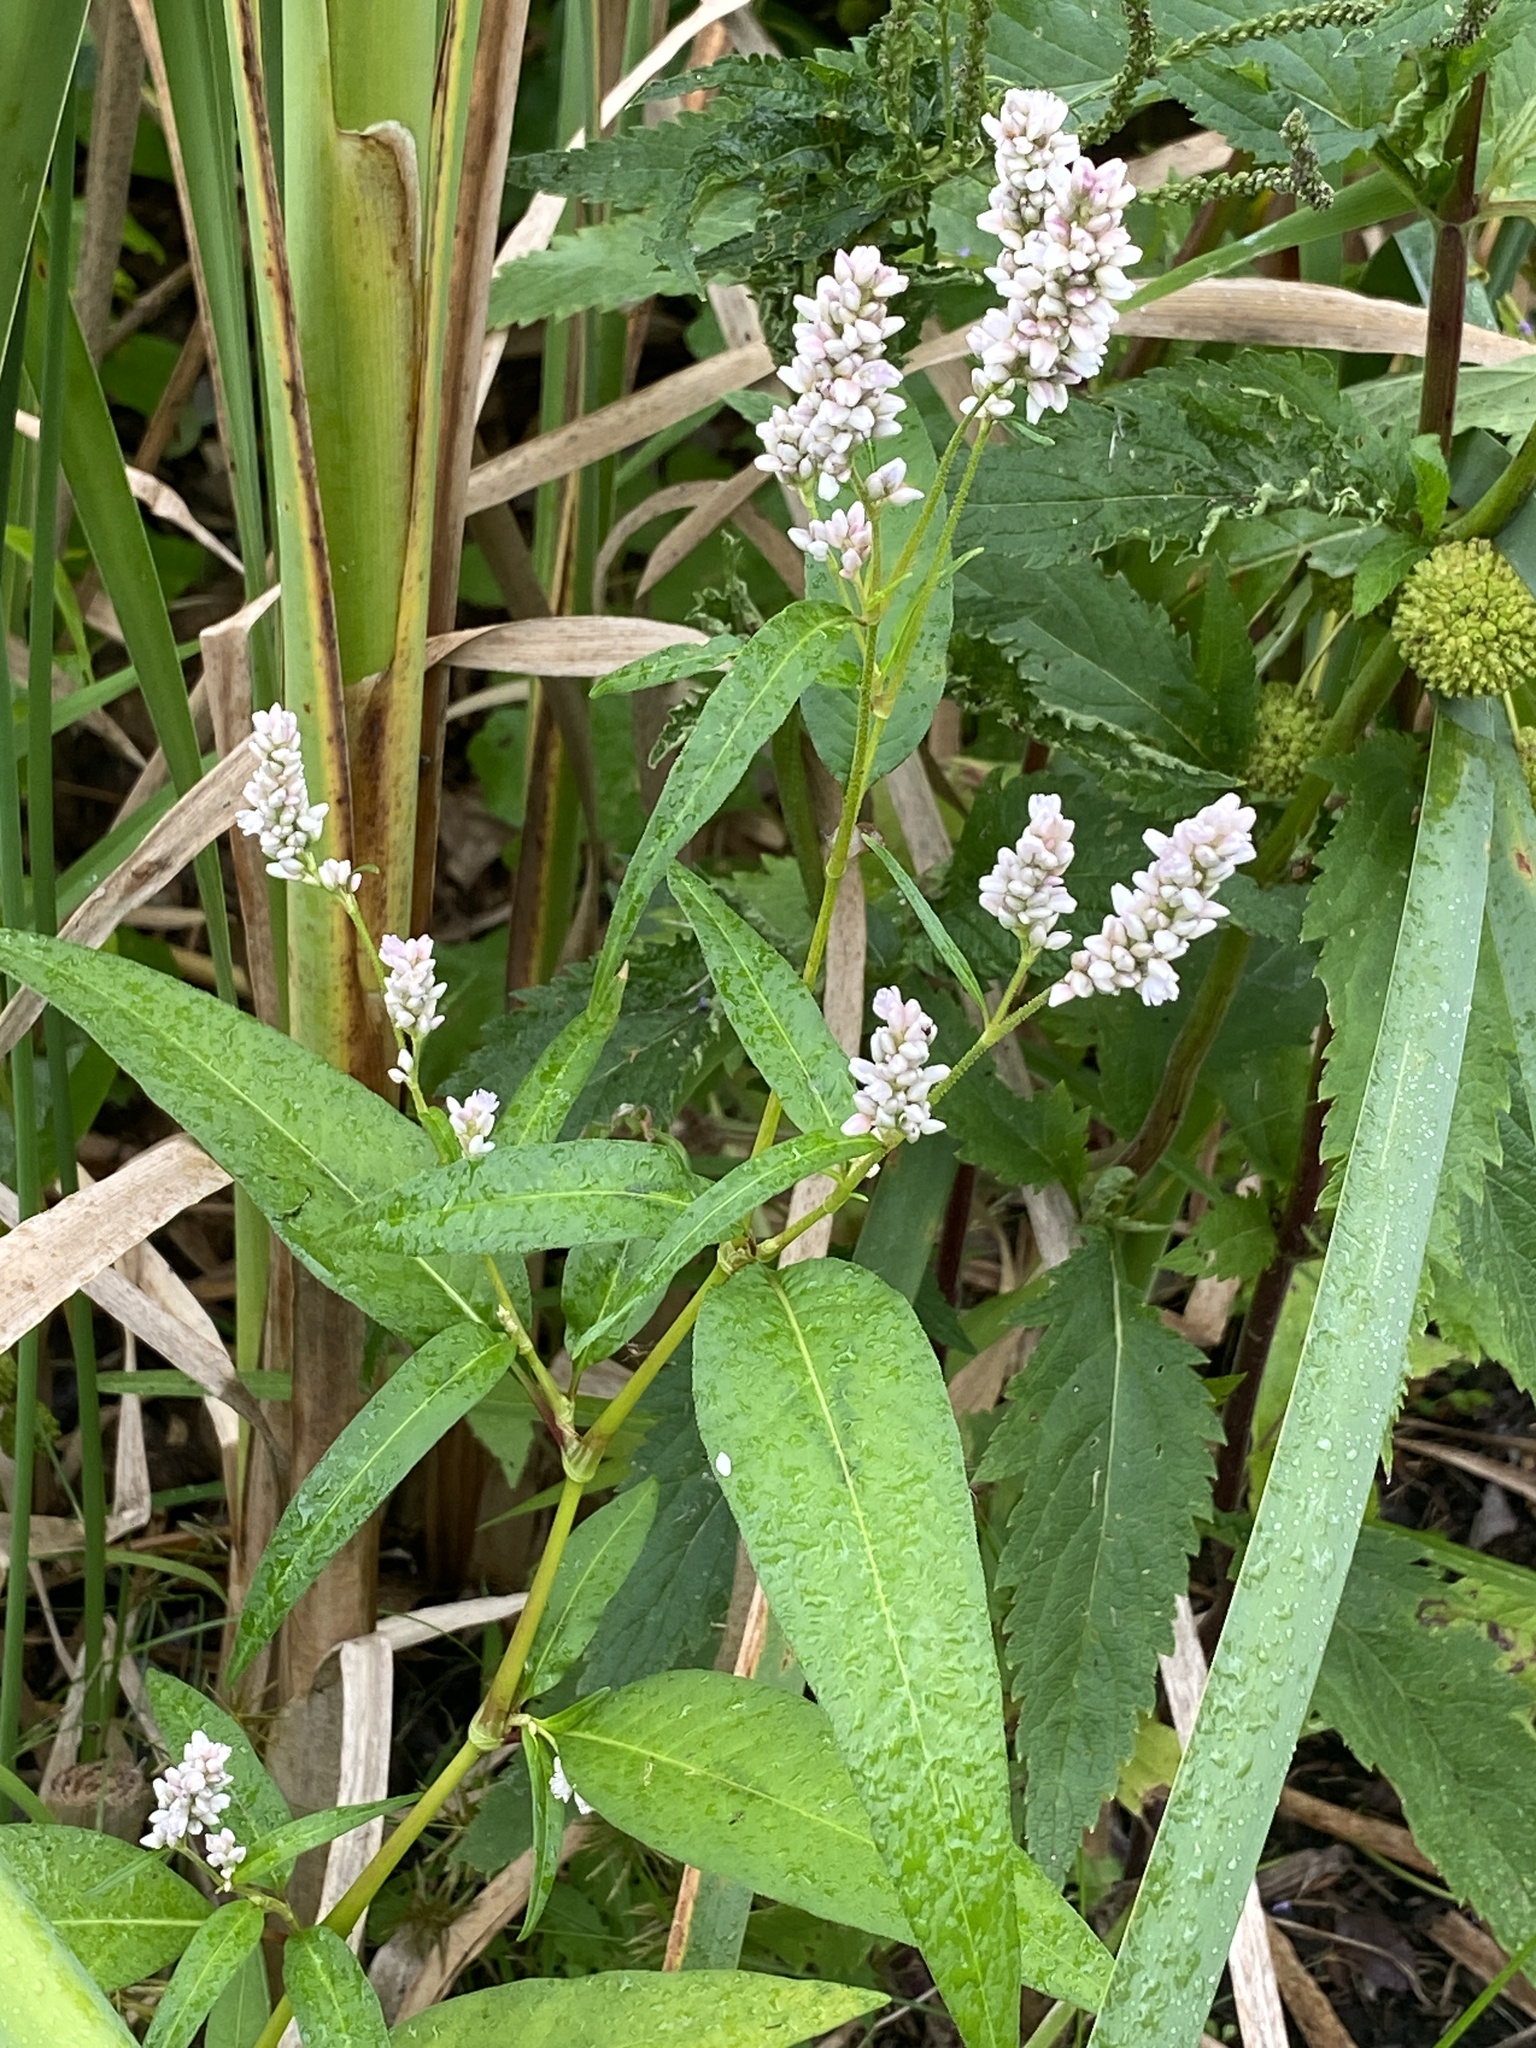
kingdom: Plantae
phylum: Tracheophyta
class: Magnoliopsida
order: Caryophyllales
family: Polygonaceae
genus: Persicaria
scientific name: Persicaria pensylvanica
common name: Pinkweed
